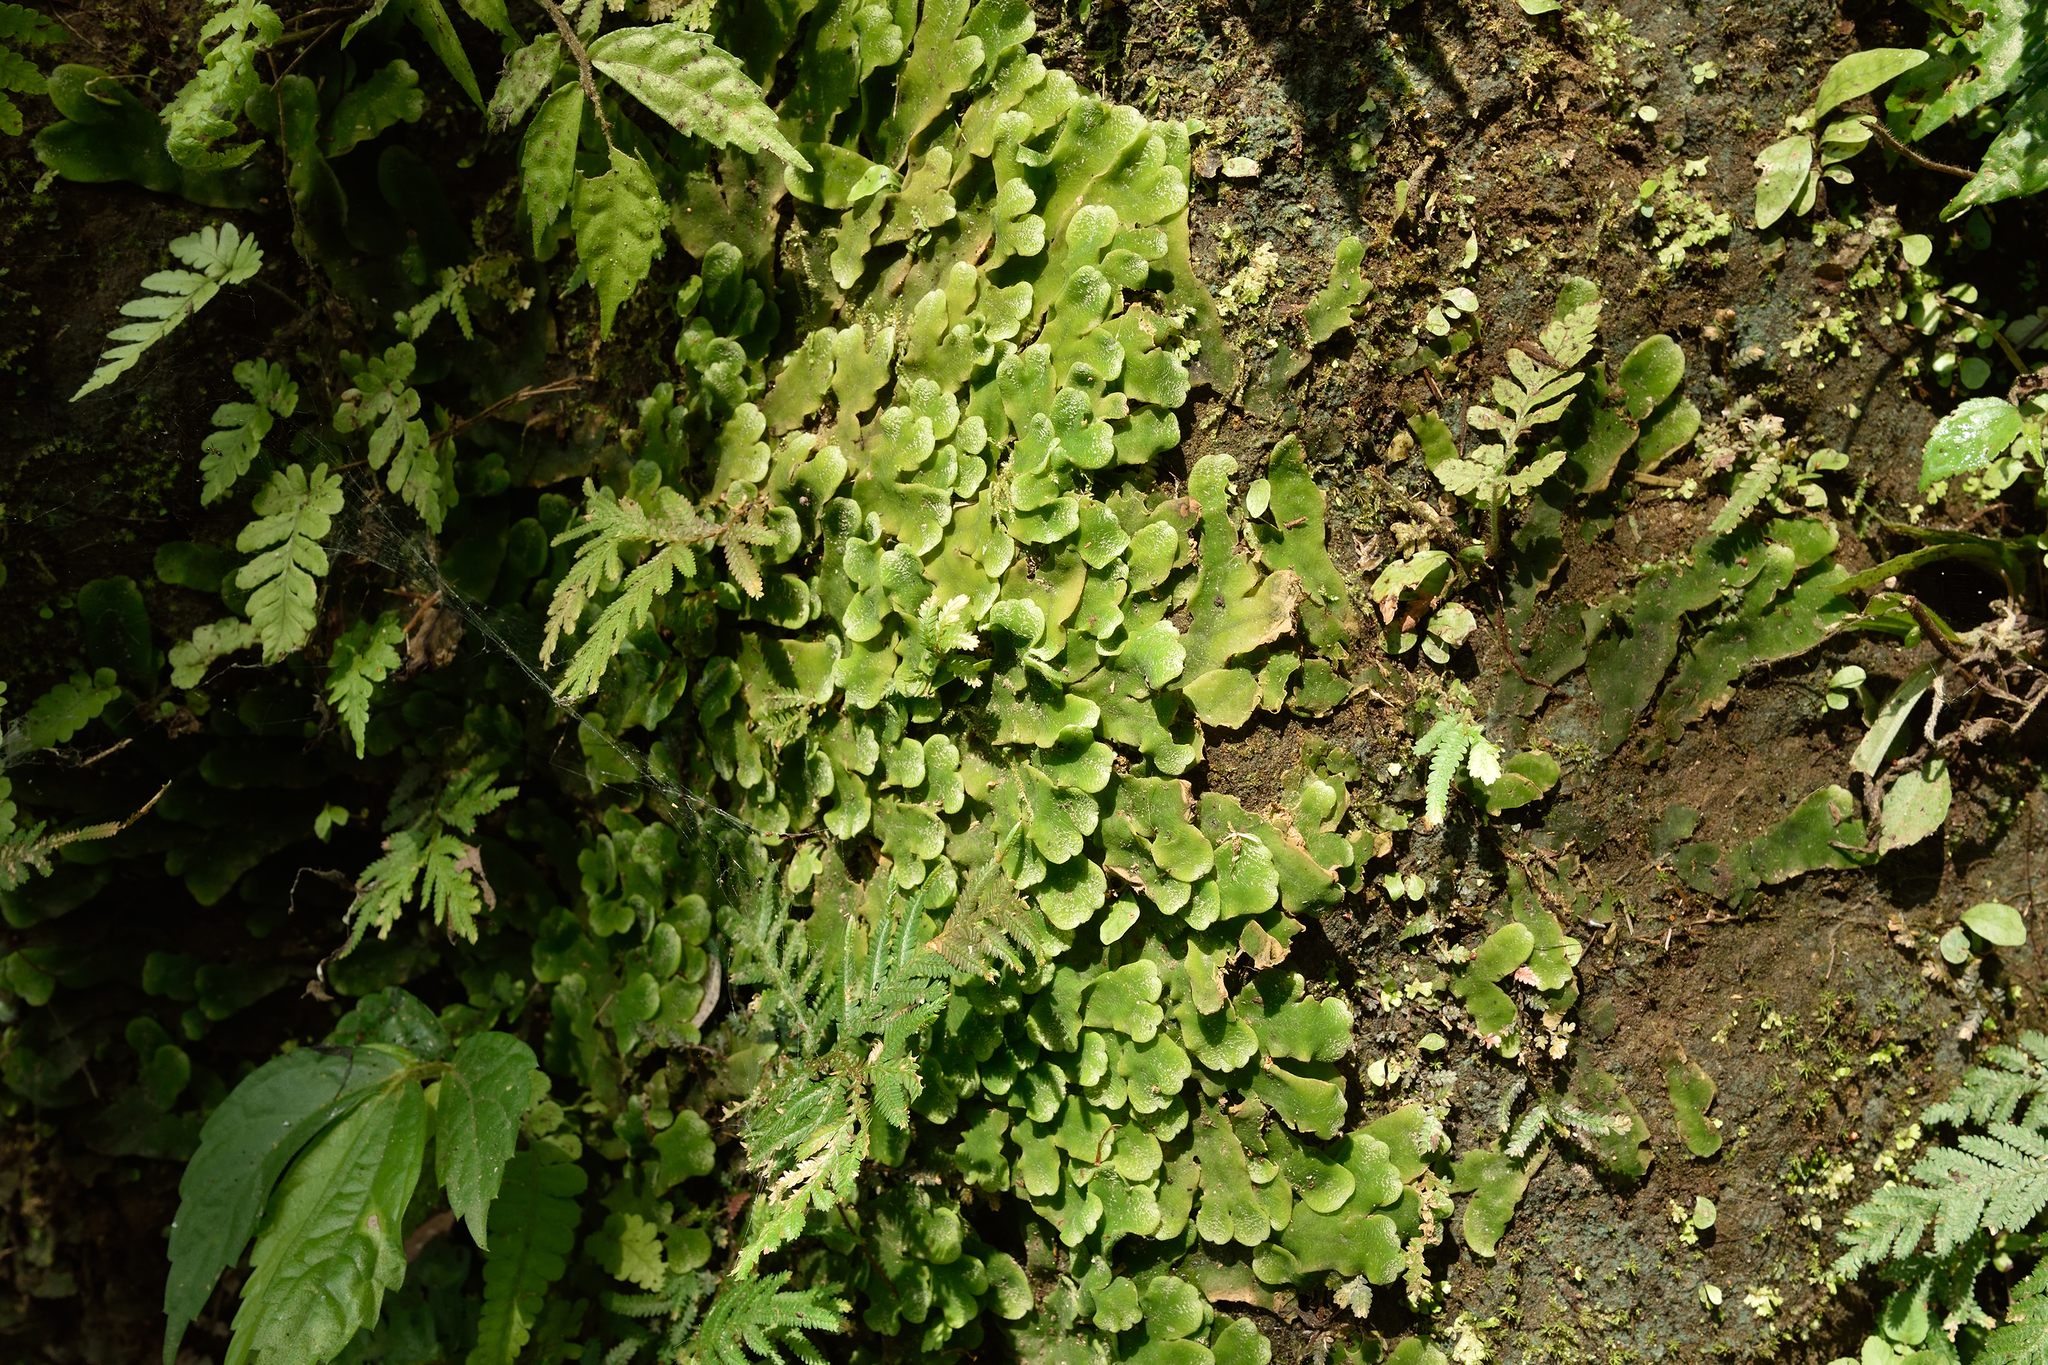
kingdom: Plantae
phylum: Marchantiophyta
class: Marchantiopsida
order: Marchantiales
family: Dumortieraceae
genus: Dumortiera
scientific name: Dumortiera hirsuta
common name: Dumortier's liverwort
